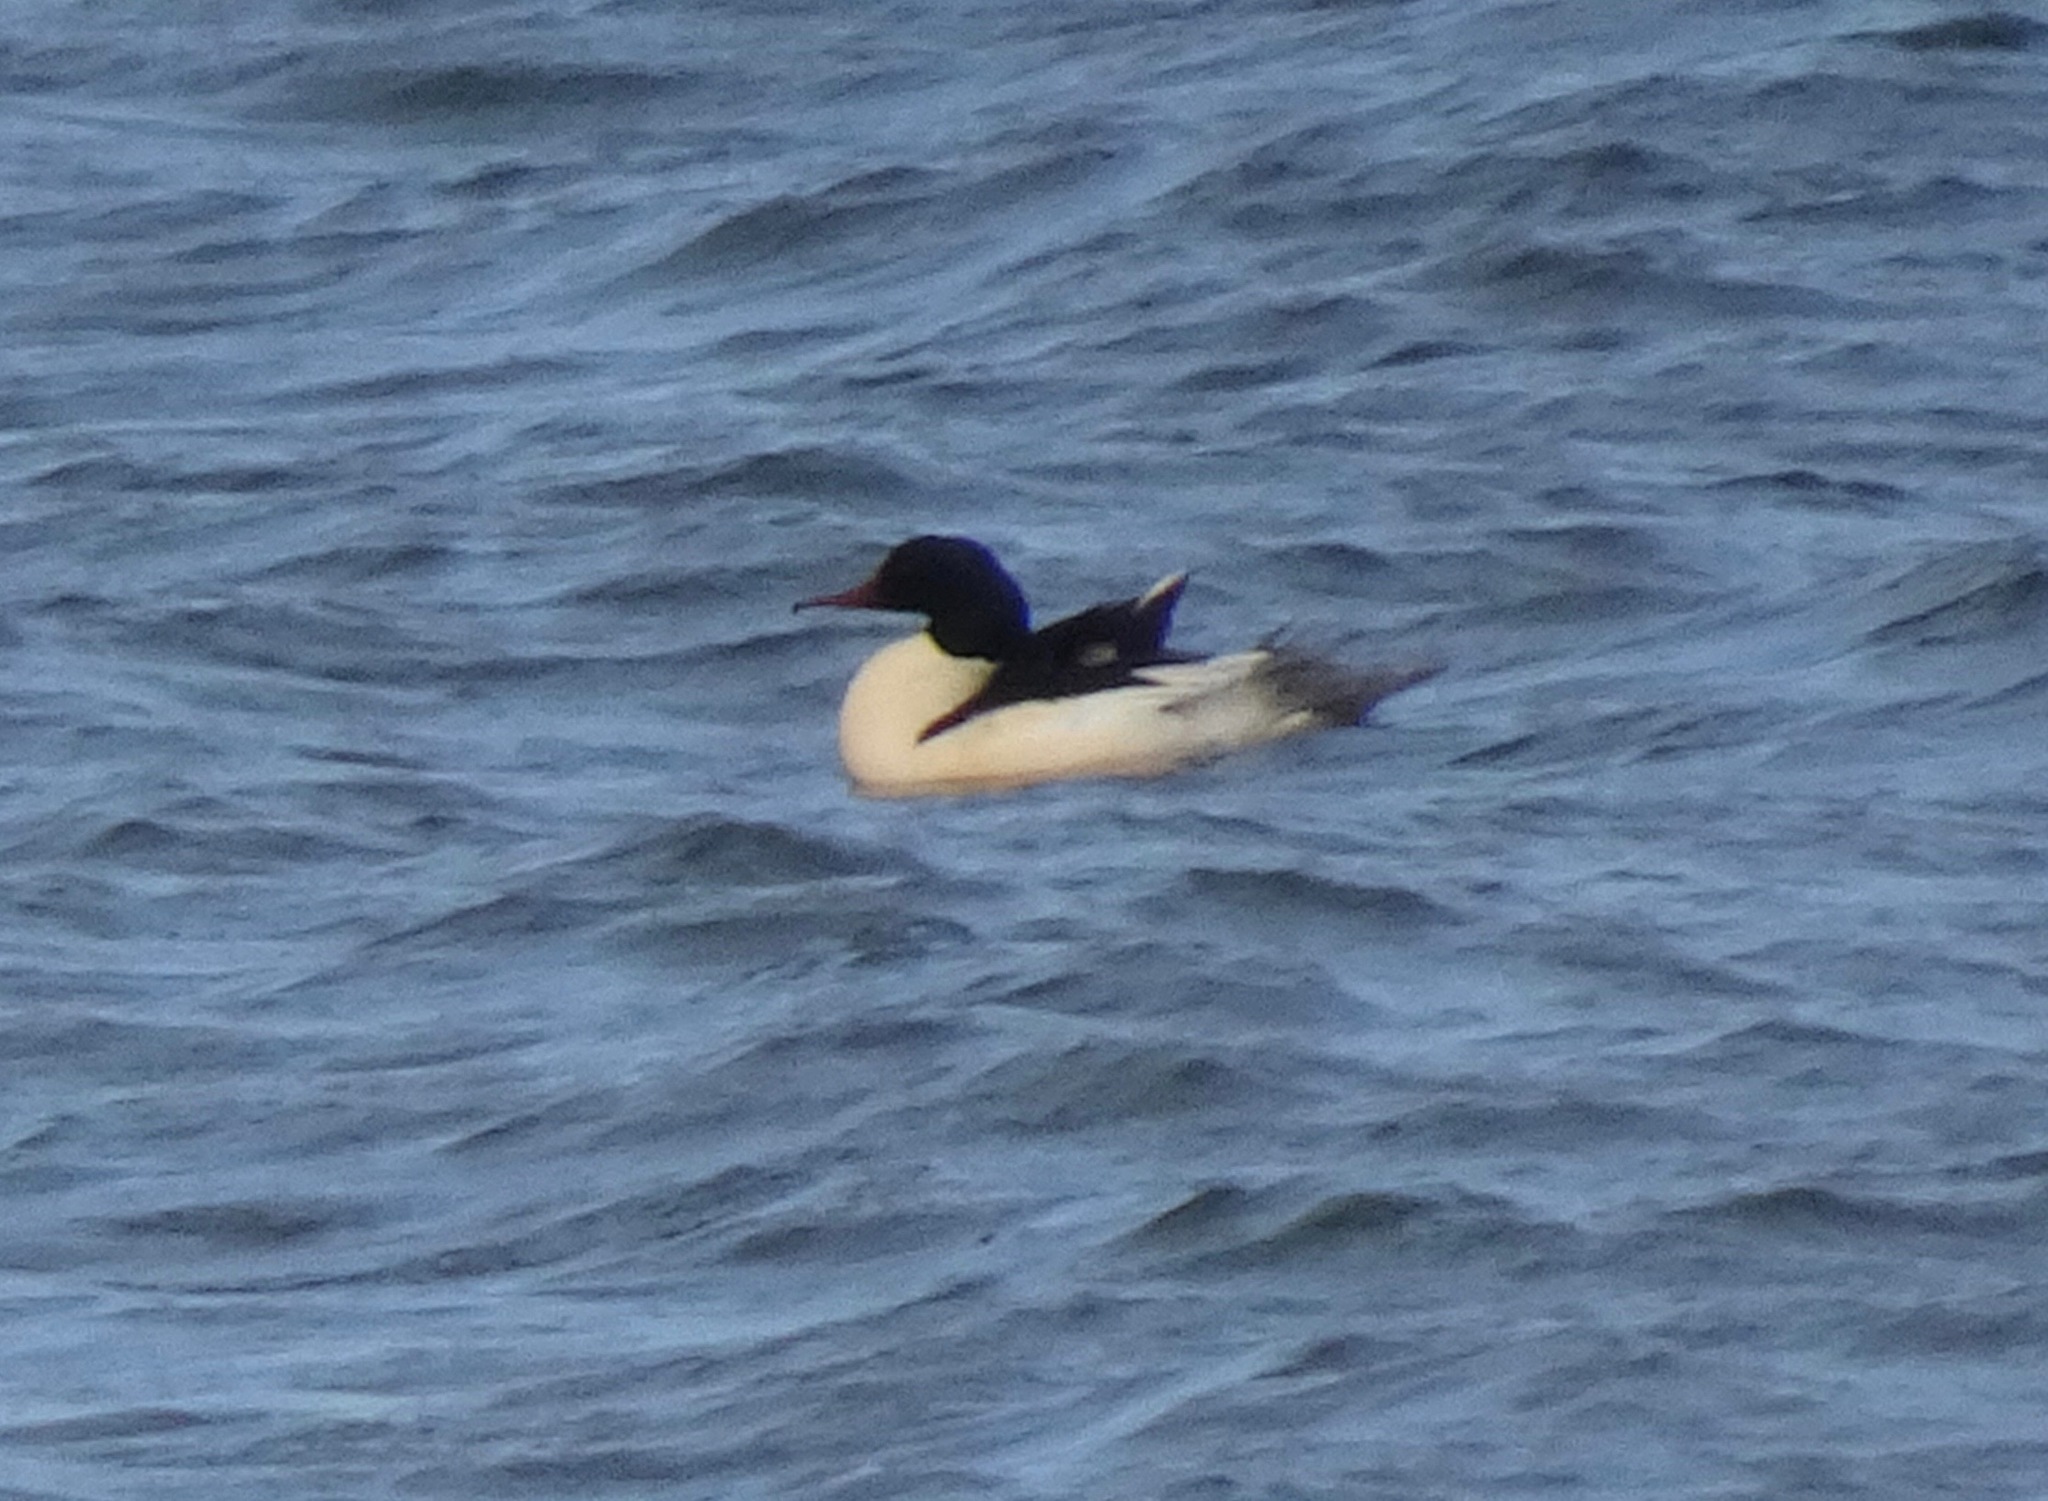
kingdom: Animalia
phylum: Chordata
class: Aves
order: Anseriformes
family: Anatidae
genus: Mergus
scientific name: Mergus merganser
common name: Common merganser
